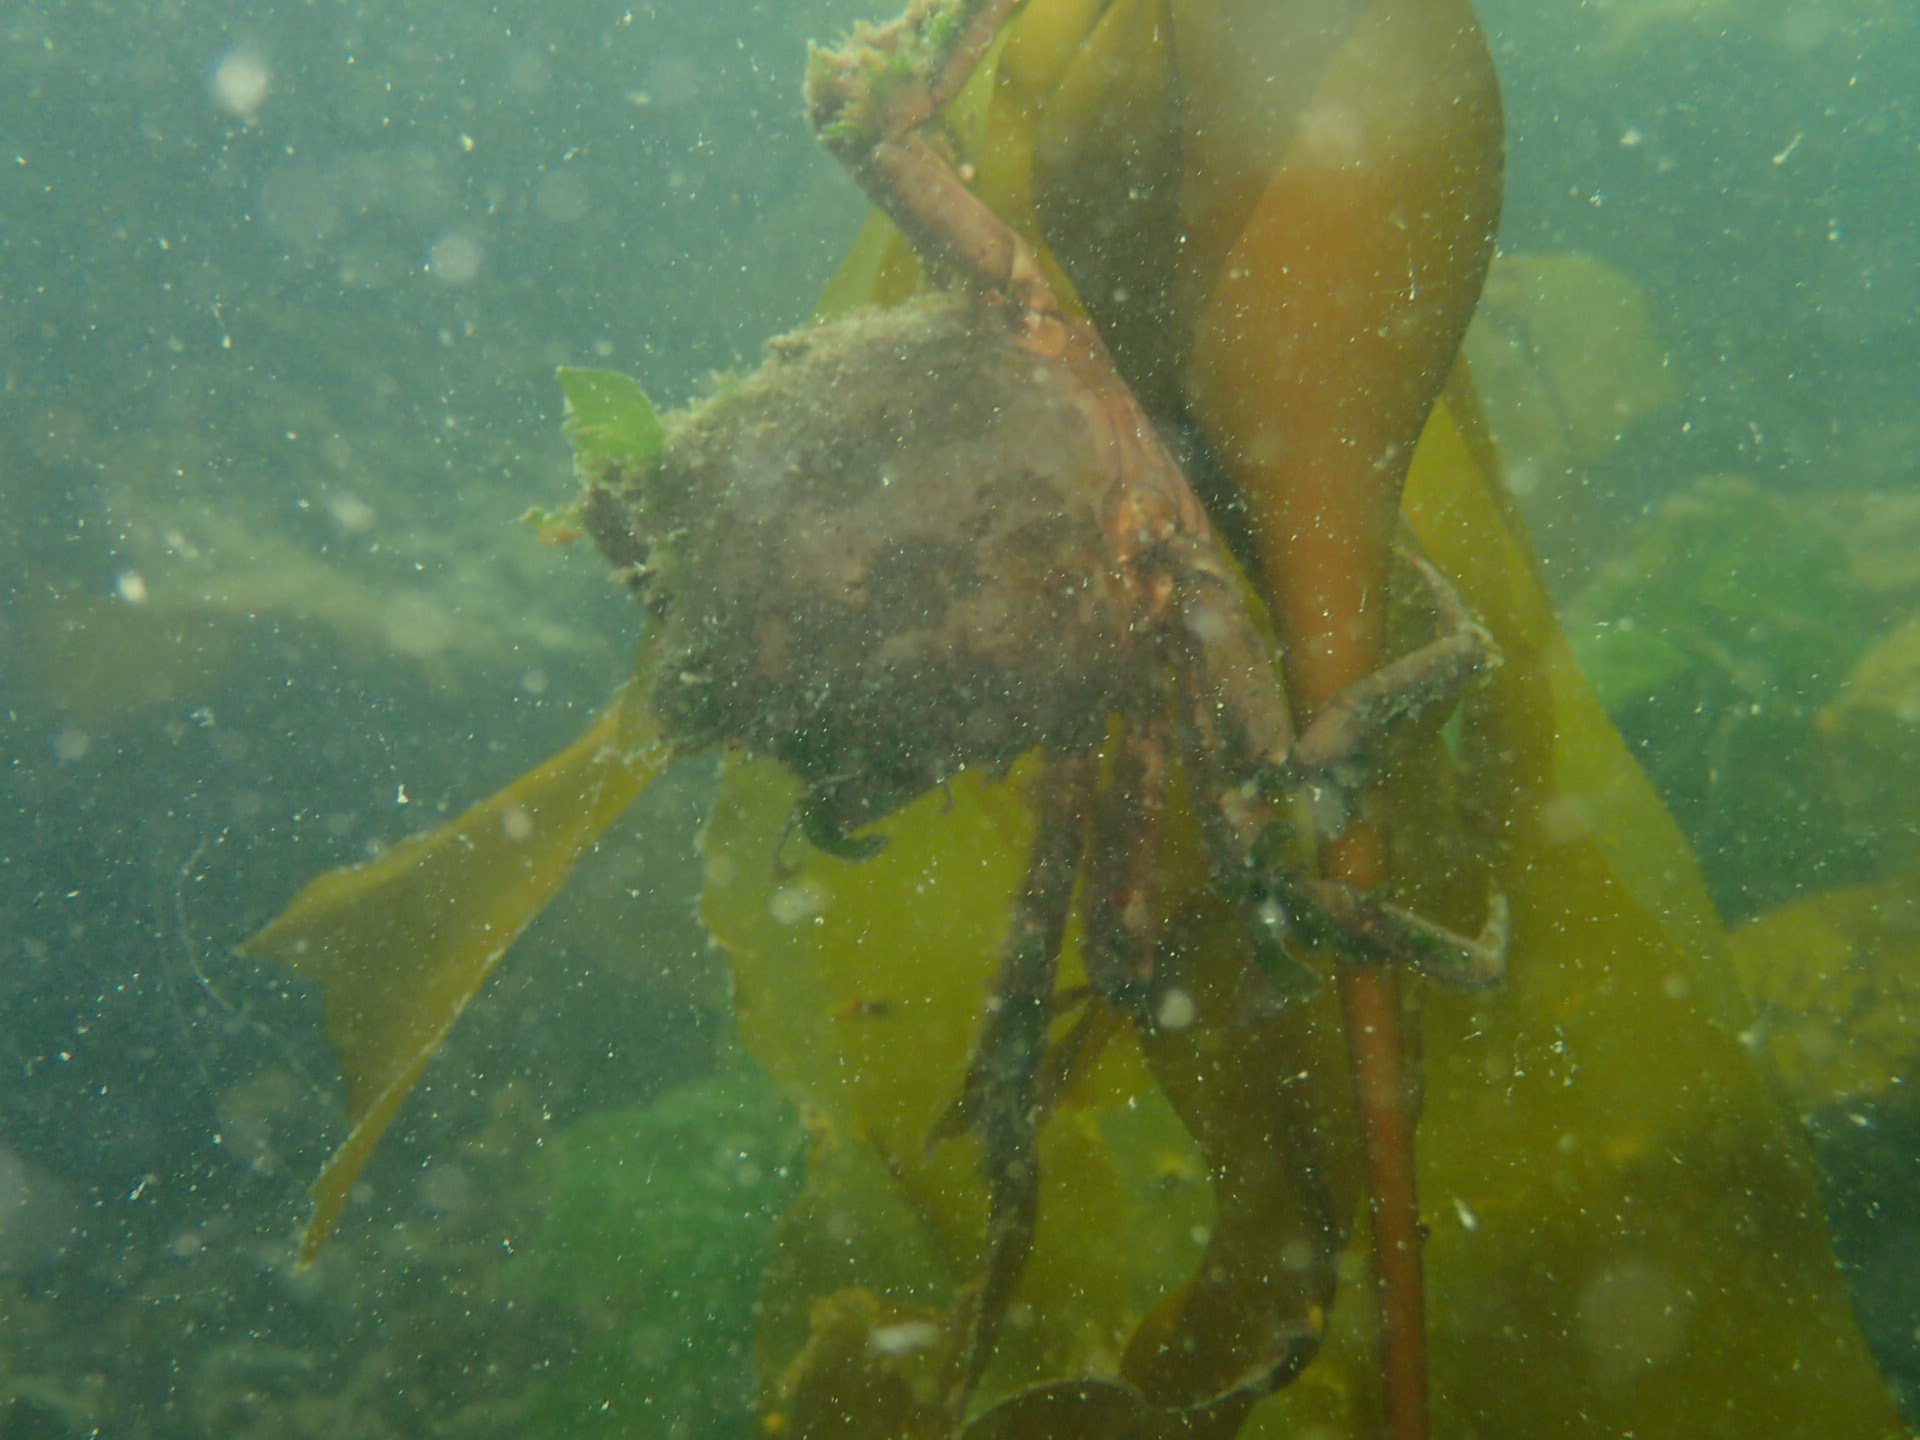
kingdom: Animalia
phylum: Arthropoda
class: Malacostraca
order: Decapoda
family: Epialtidae
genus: Pugettia
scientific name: Pugettia producta
